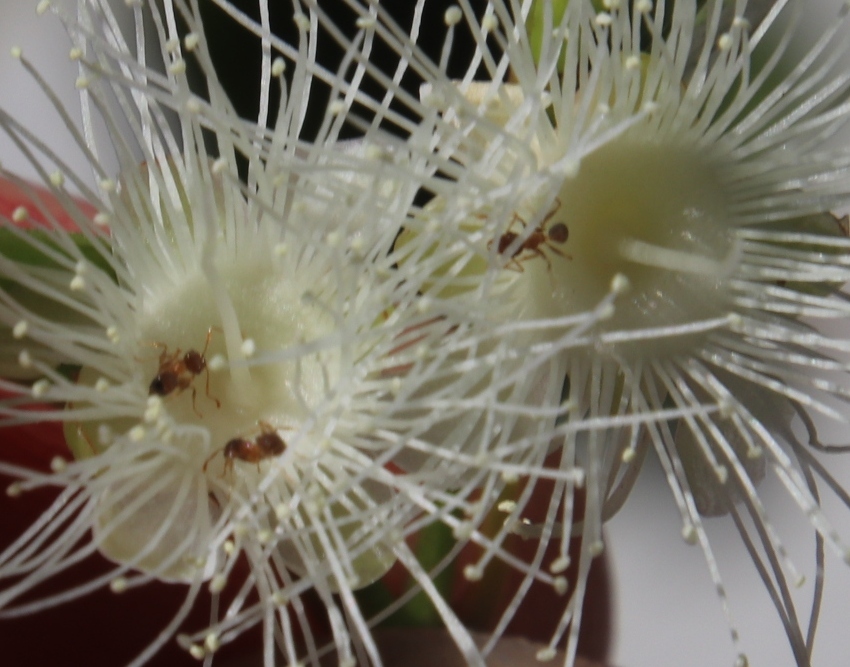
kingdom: Animalia
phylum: Arthropoda
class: Insecta
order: Hymenoptera
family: Formicidae
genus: Pheidole
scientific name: Pheidole megacephala
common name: Bigheaded ant
